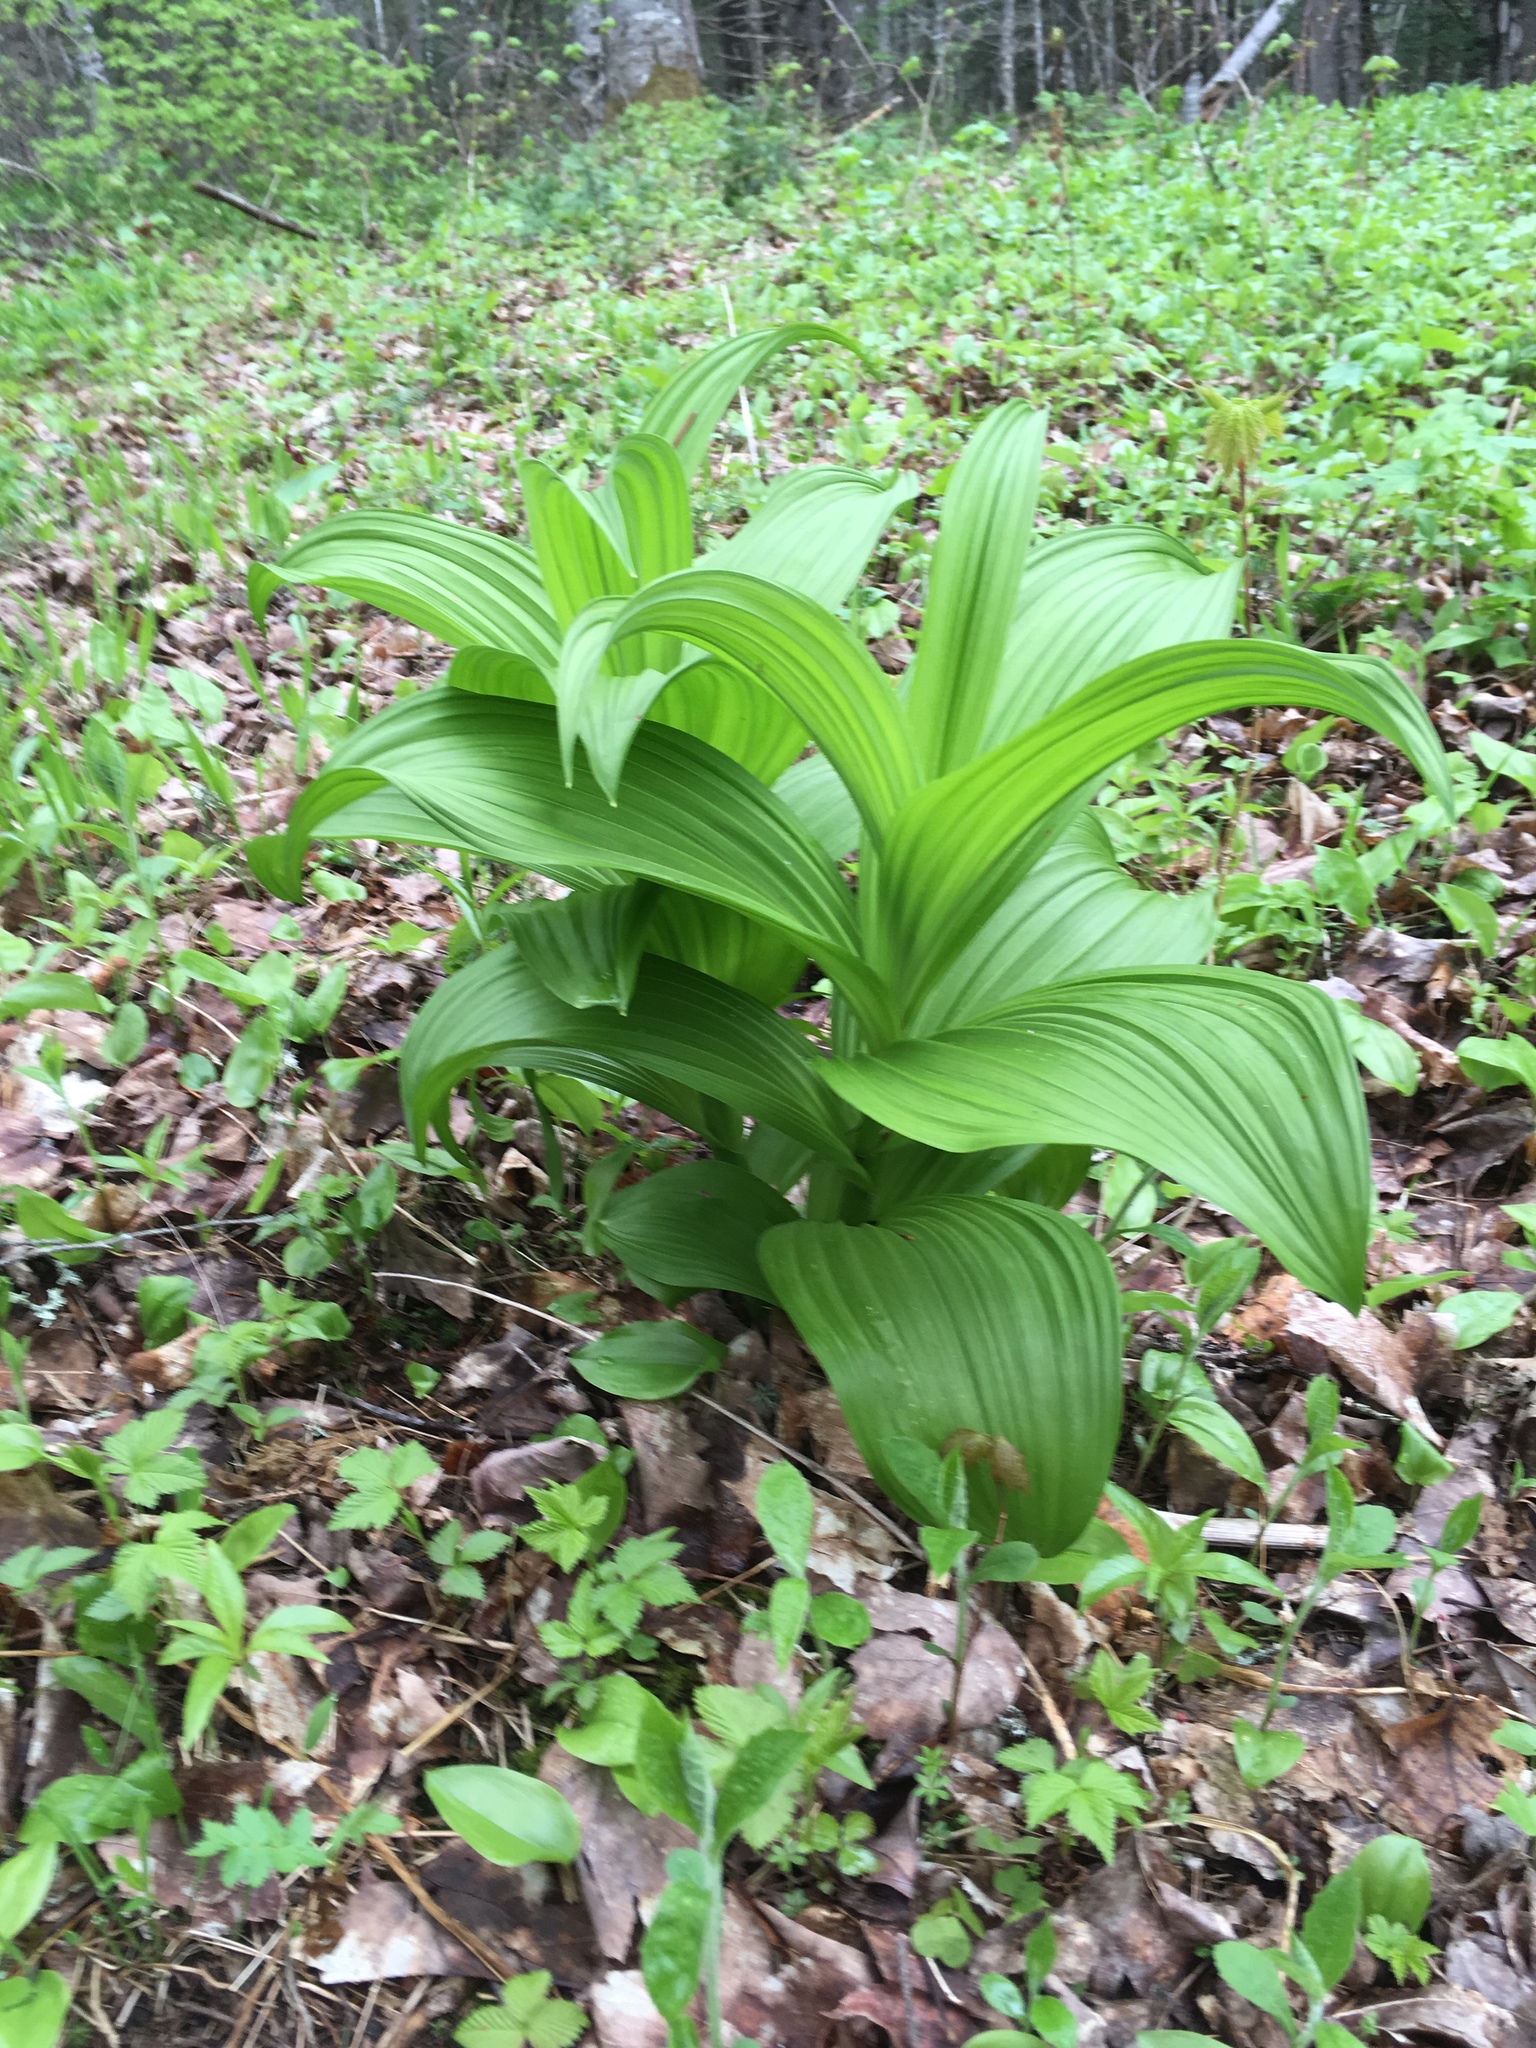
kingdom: Plantae
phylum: Tracheophyta
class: Liliopsida
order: Liliales
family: Melanthiaceae
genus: Veratrum
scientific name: Veratrum viride
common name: American false hellebore
